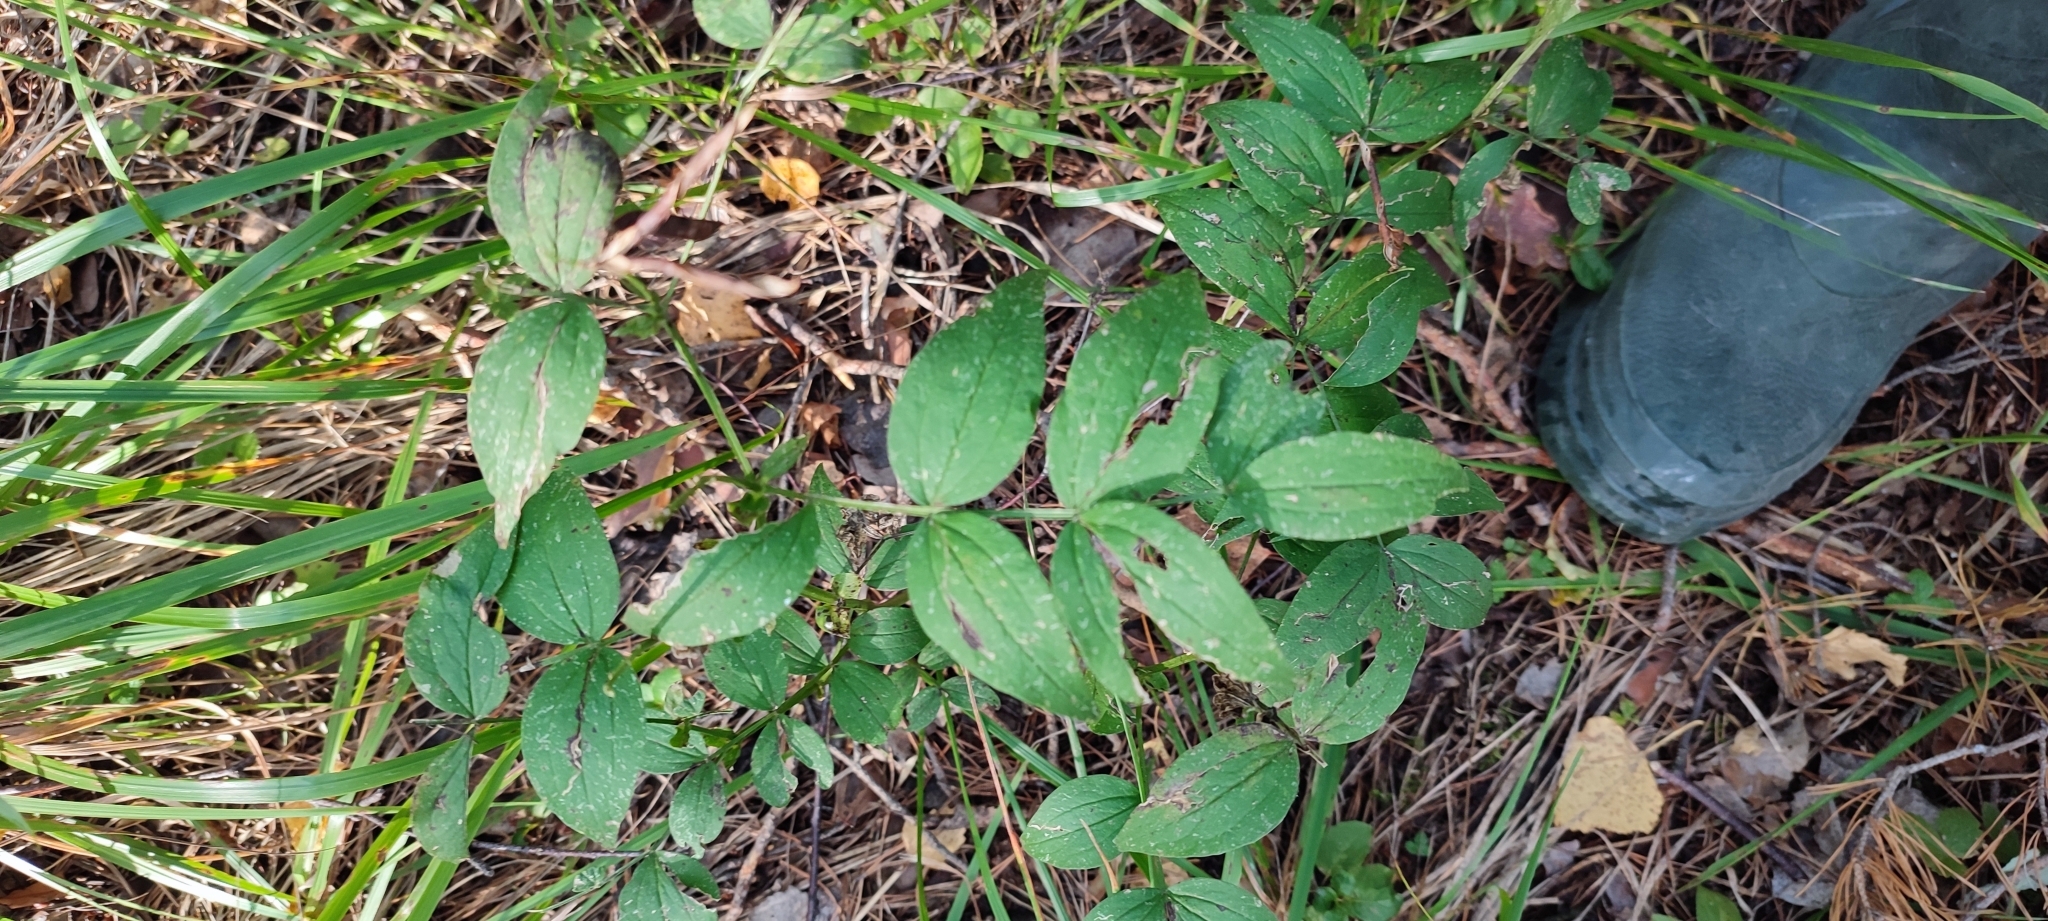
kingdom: Plantae
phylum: Tracheophyta
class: Magnoliopsida
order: Fabales
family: Fabaceae
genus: Lathyrus
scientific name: Lathyrus vernus
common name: Spring pea
